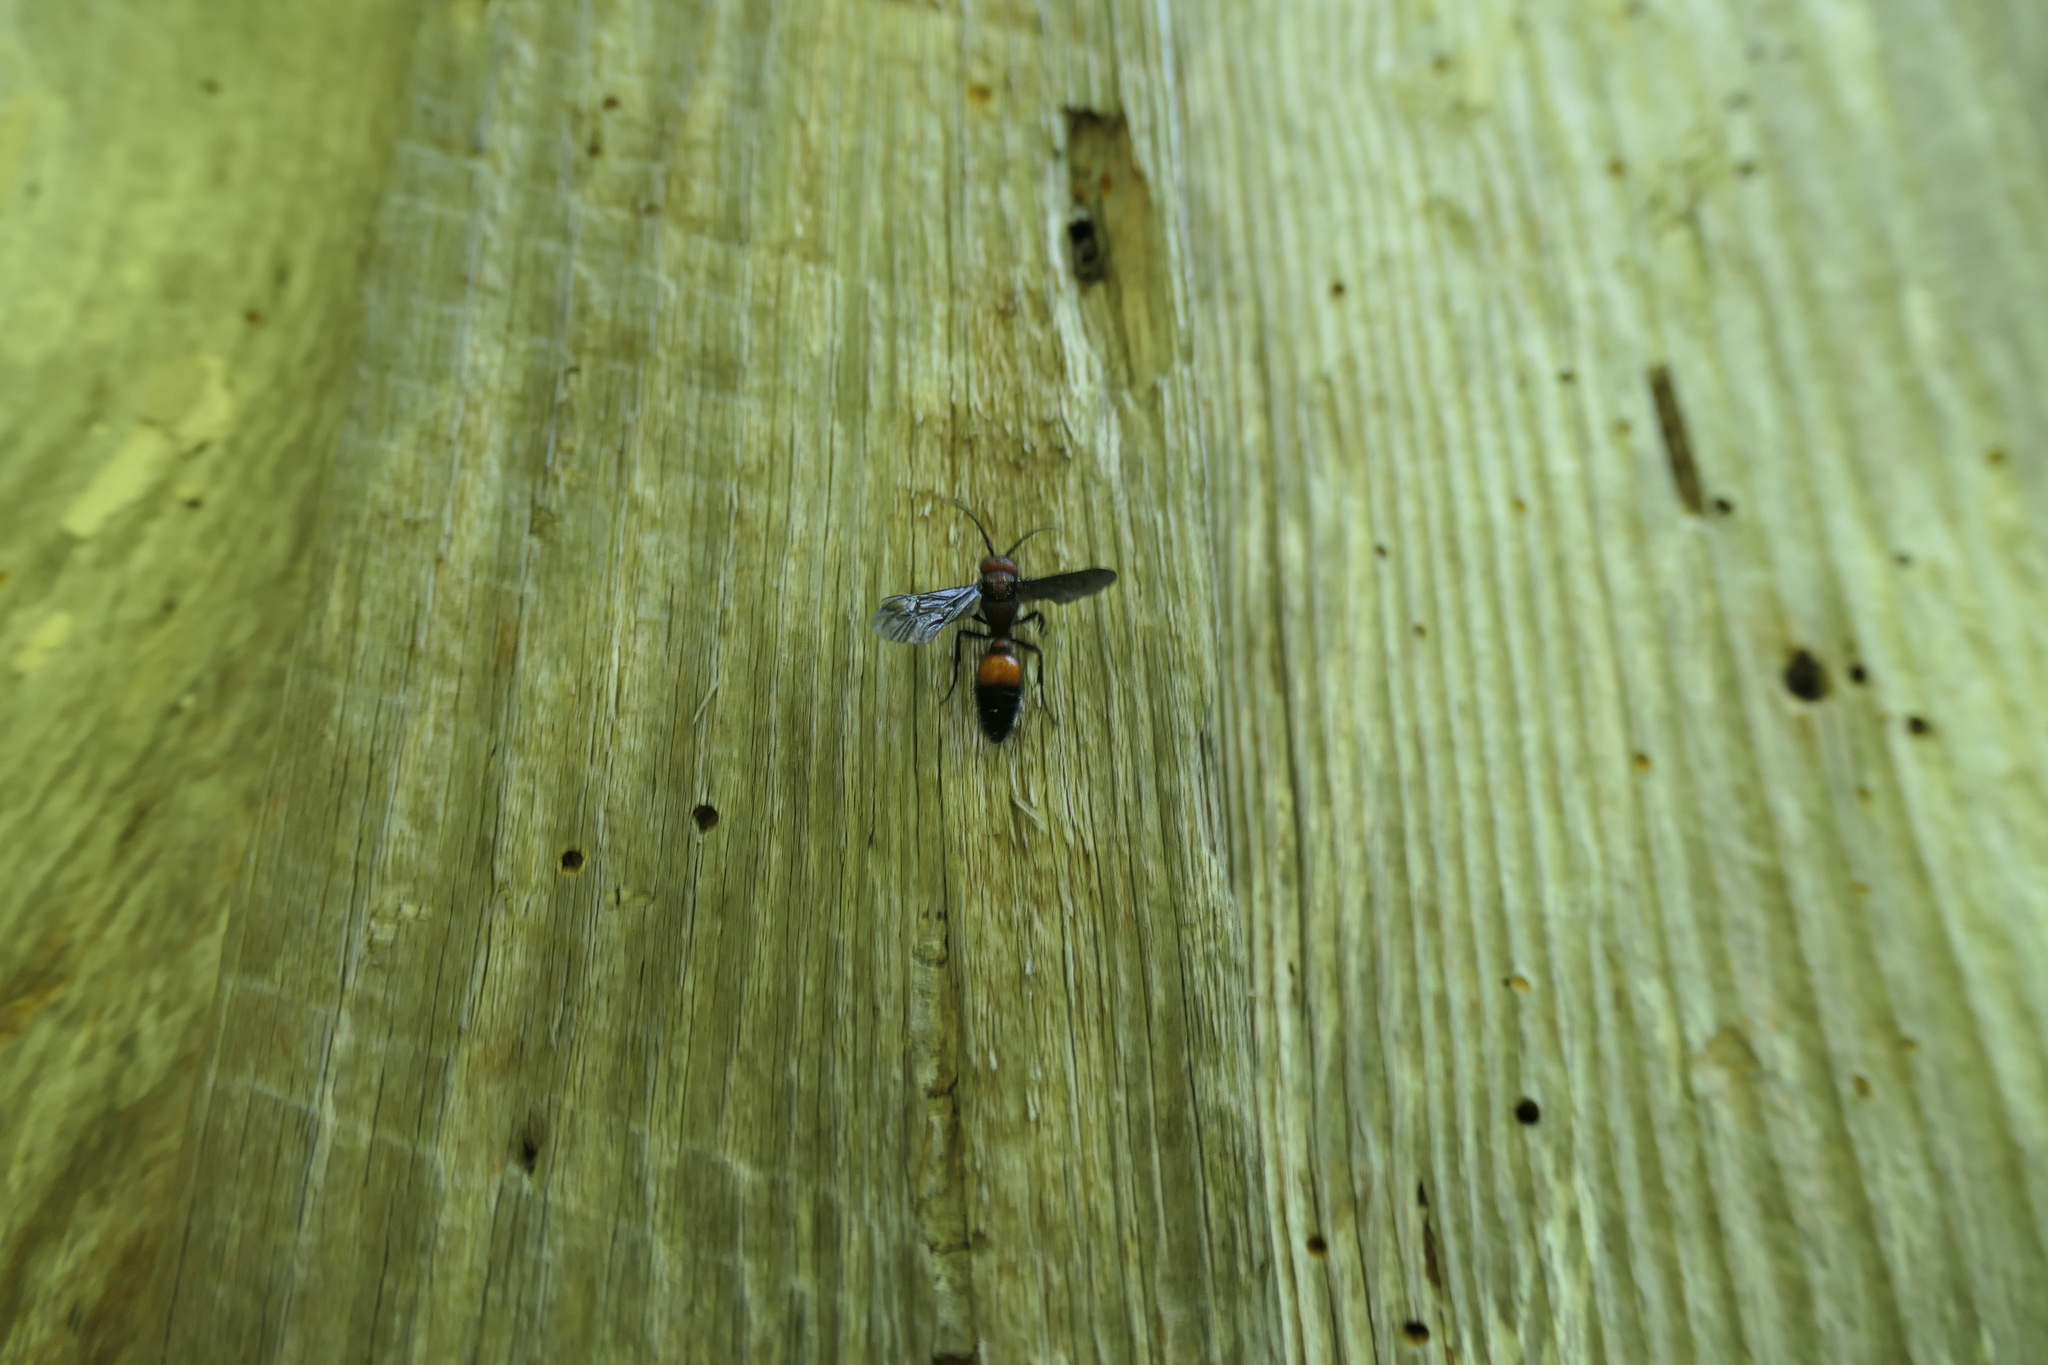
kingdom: Animalia
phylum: Arthropoda
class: Insecta
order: Hymenoptera
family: Mutillidae
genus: Sphaeropthalma
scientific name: Sphaeropthalma
